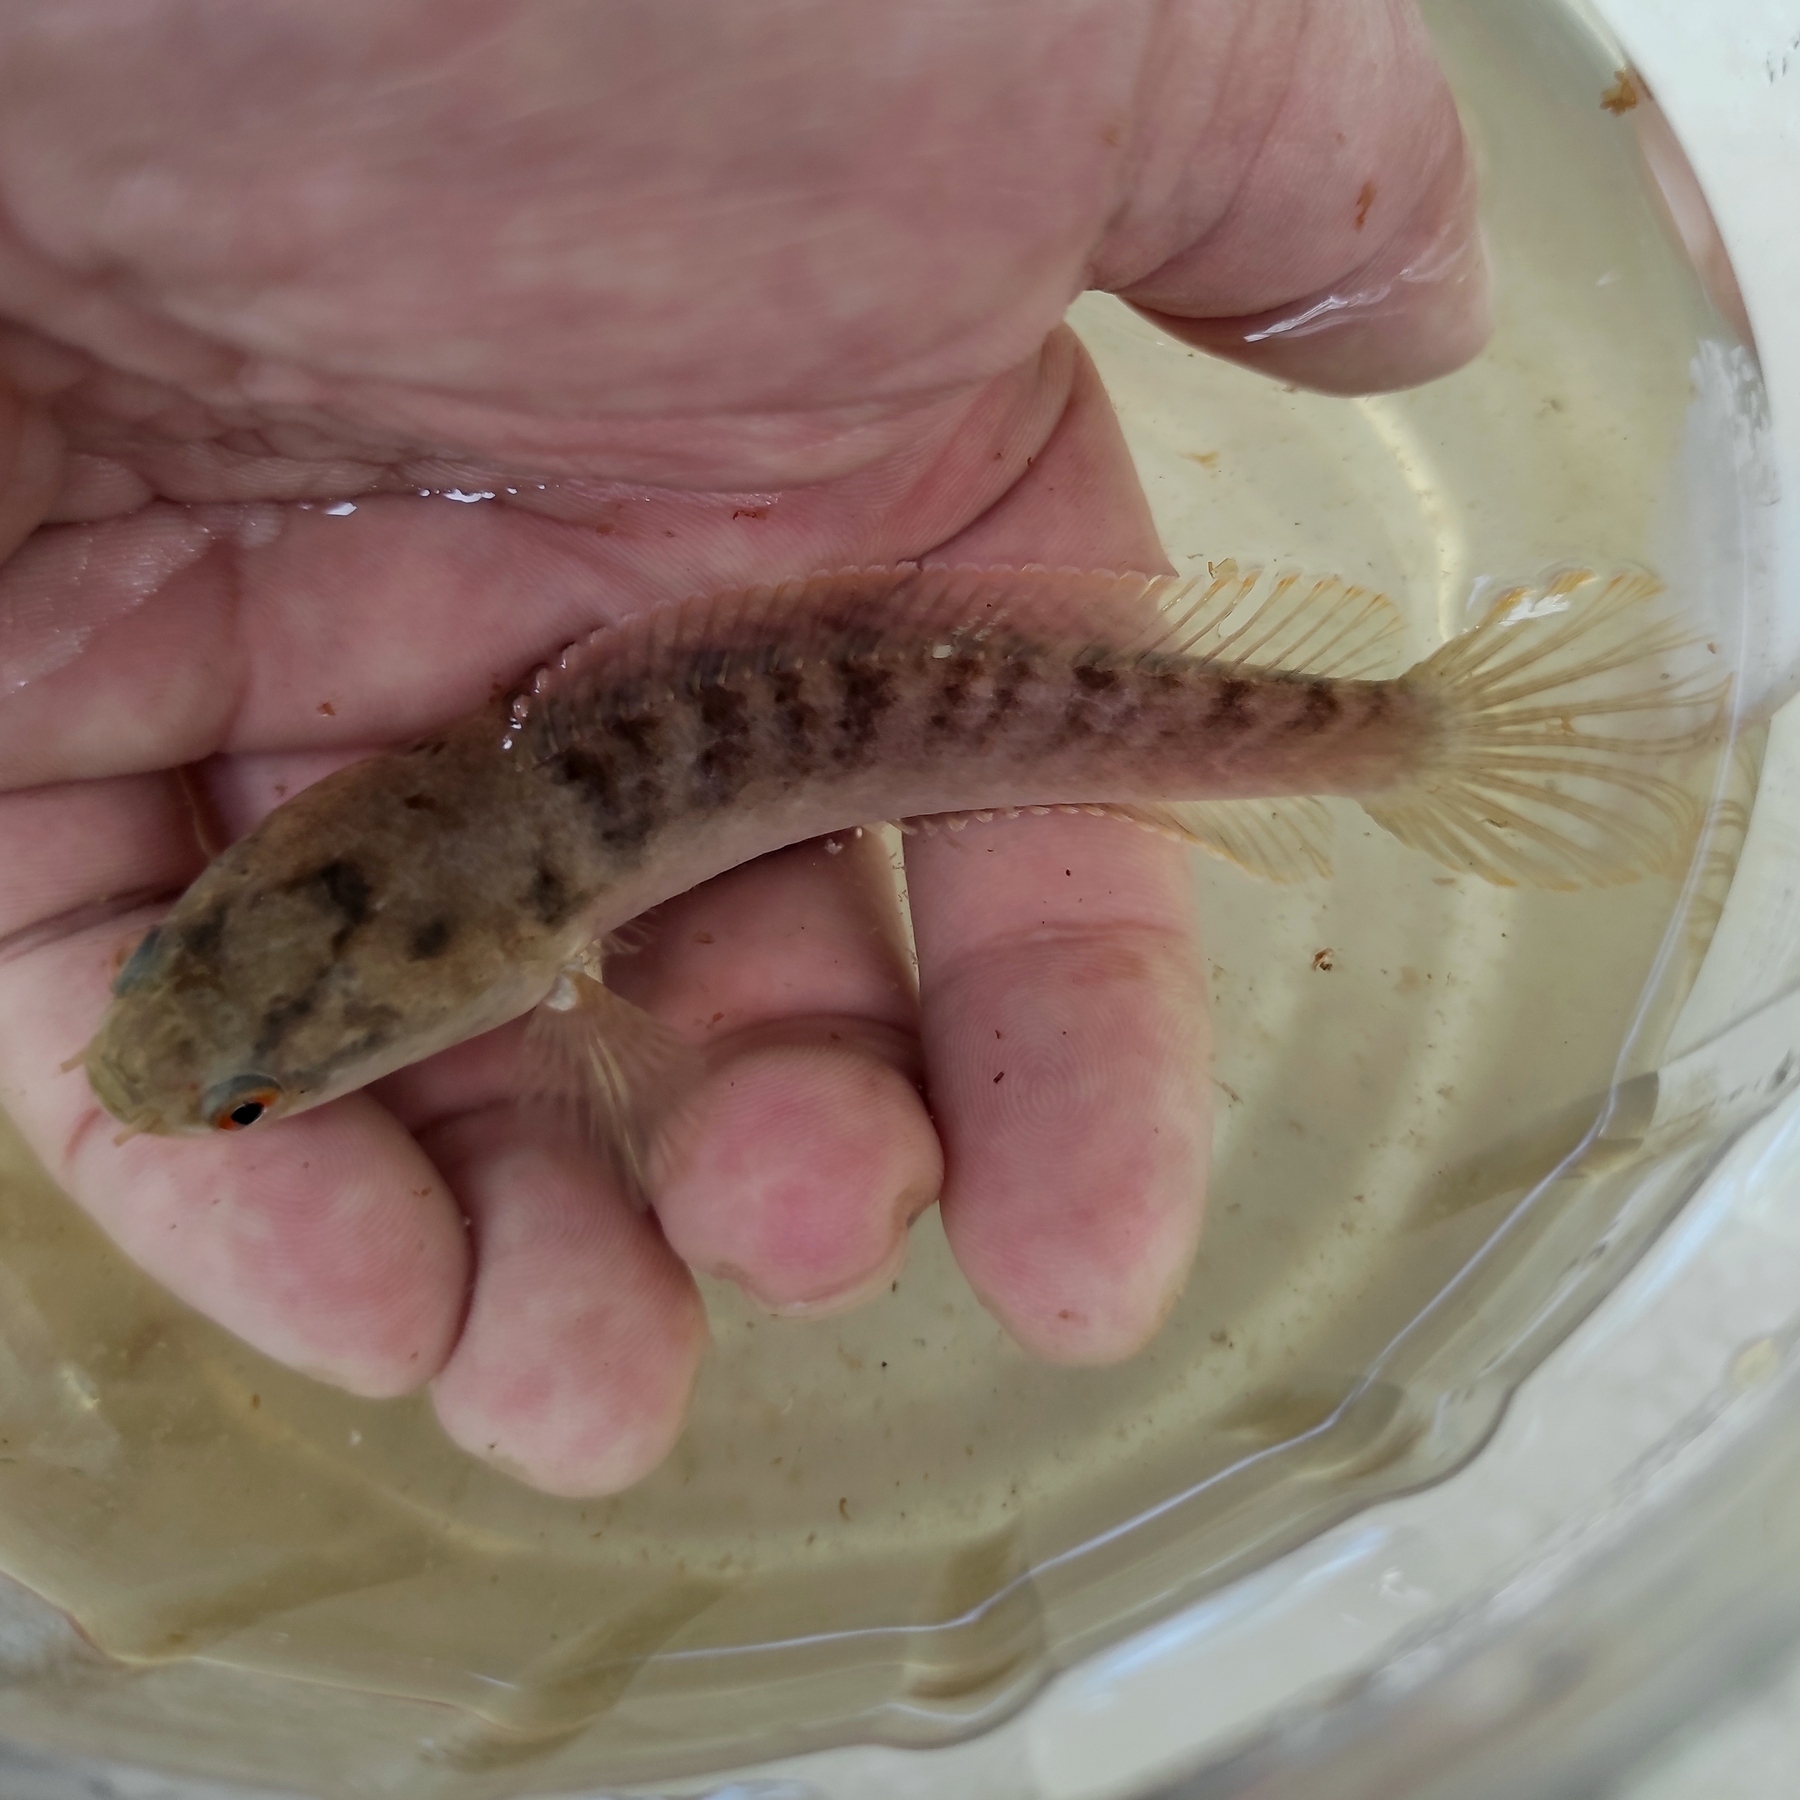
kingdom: Animalia
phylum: Chordata
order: Perciformes
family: Channidae
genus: Channa
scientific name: Channa gachua
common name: Dwarf snakehead
